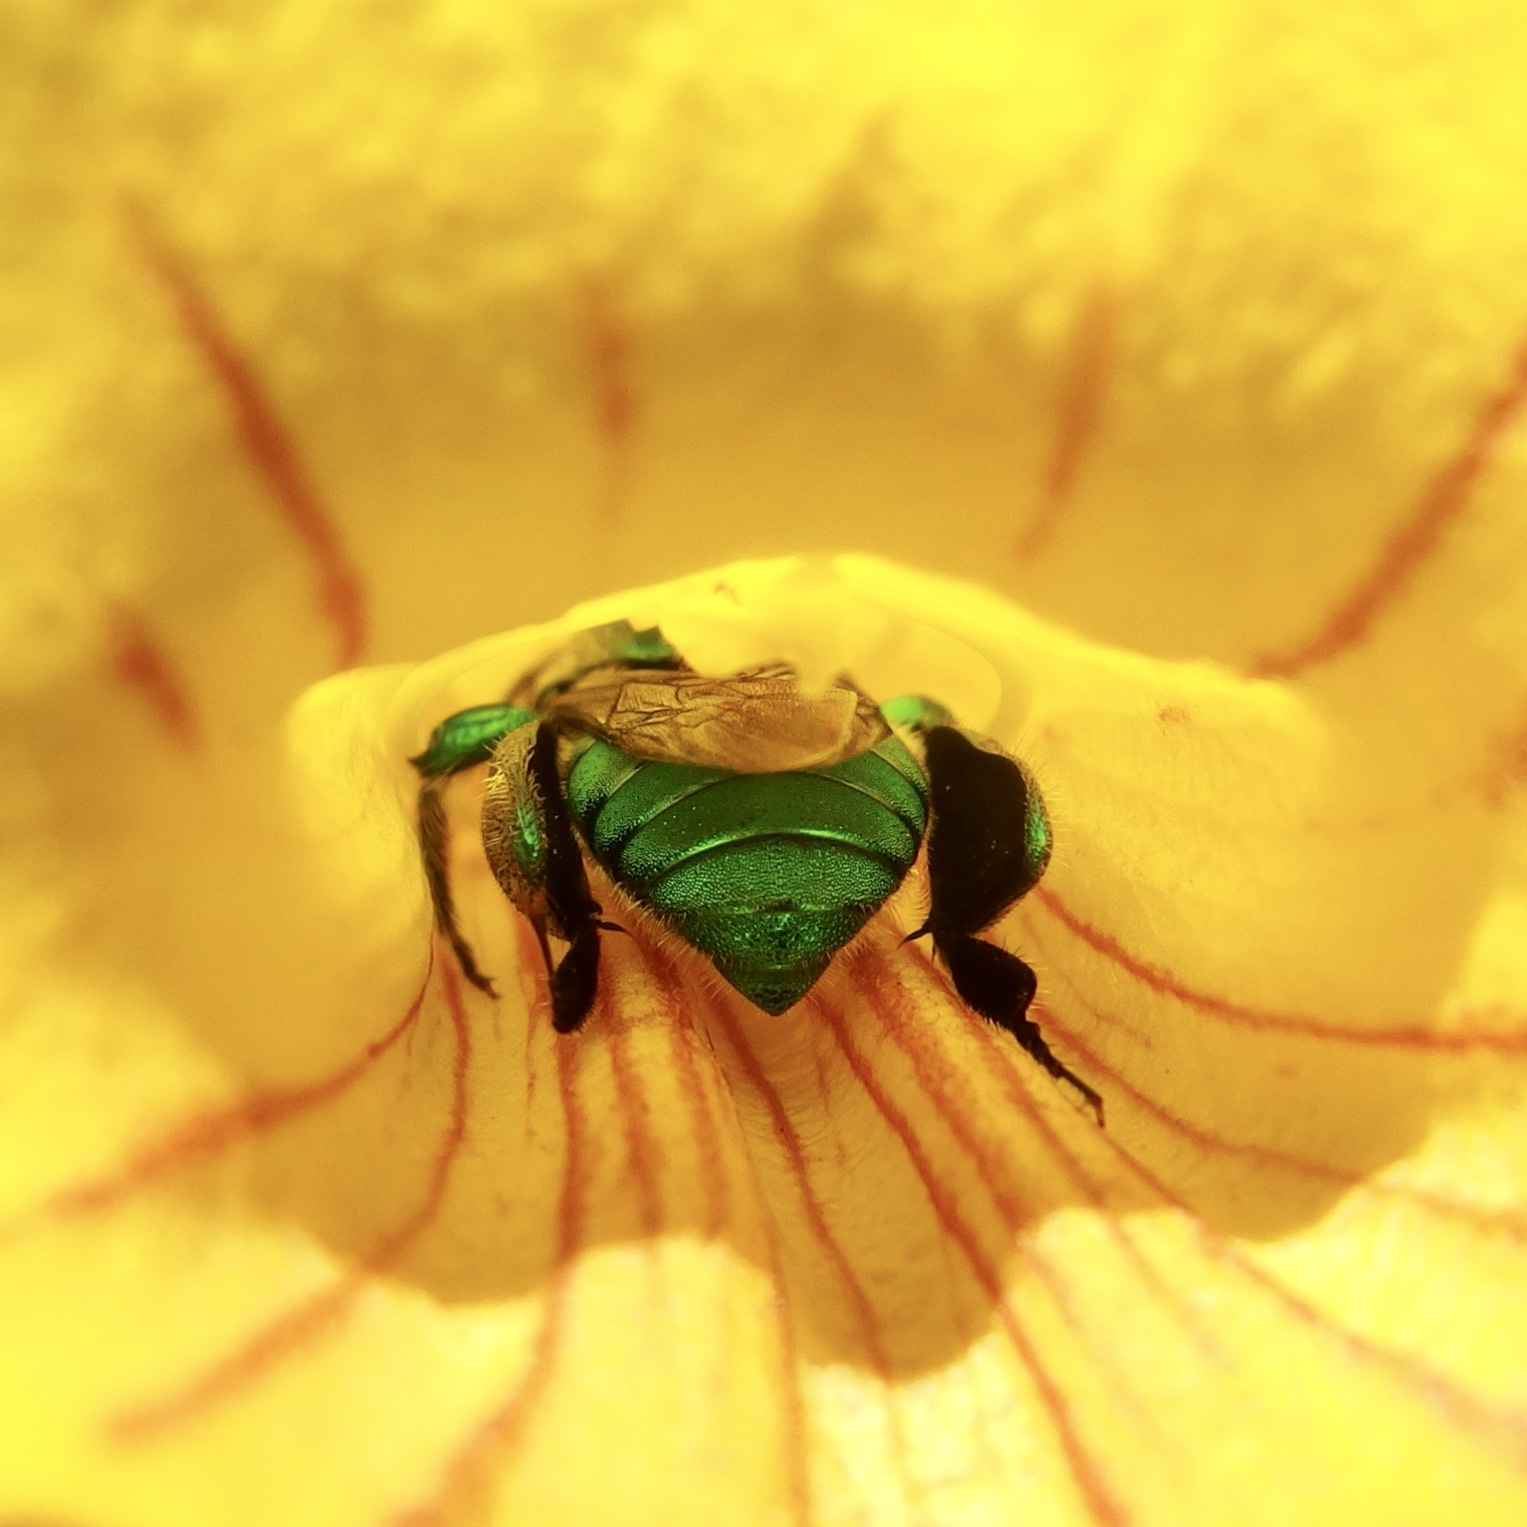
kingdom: Animalia
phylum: Arthropoda
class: Insecta
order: Hymenoptera
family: Apidae
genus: Euglossa
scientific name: Euglossa viridissima
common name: Polished warrior euglossa
